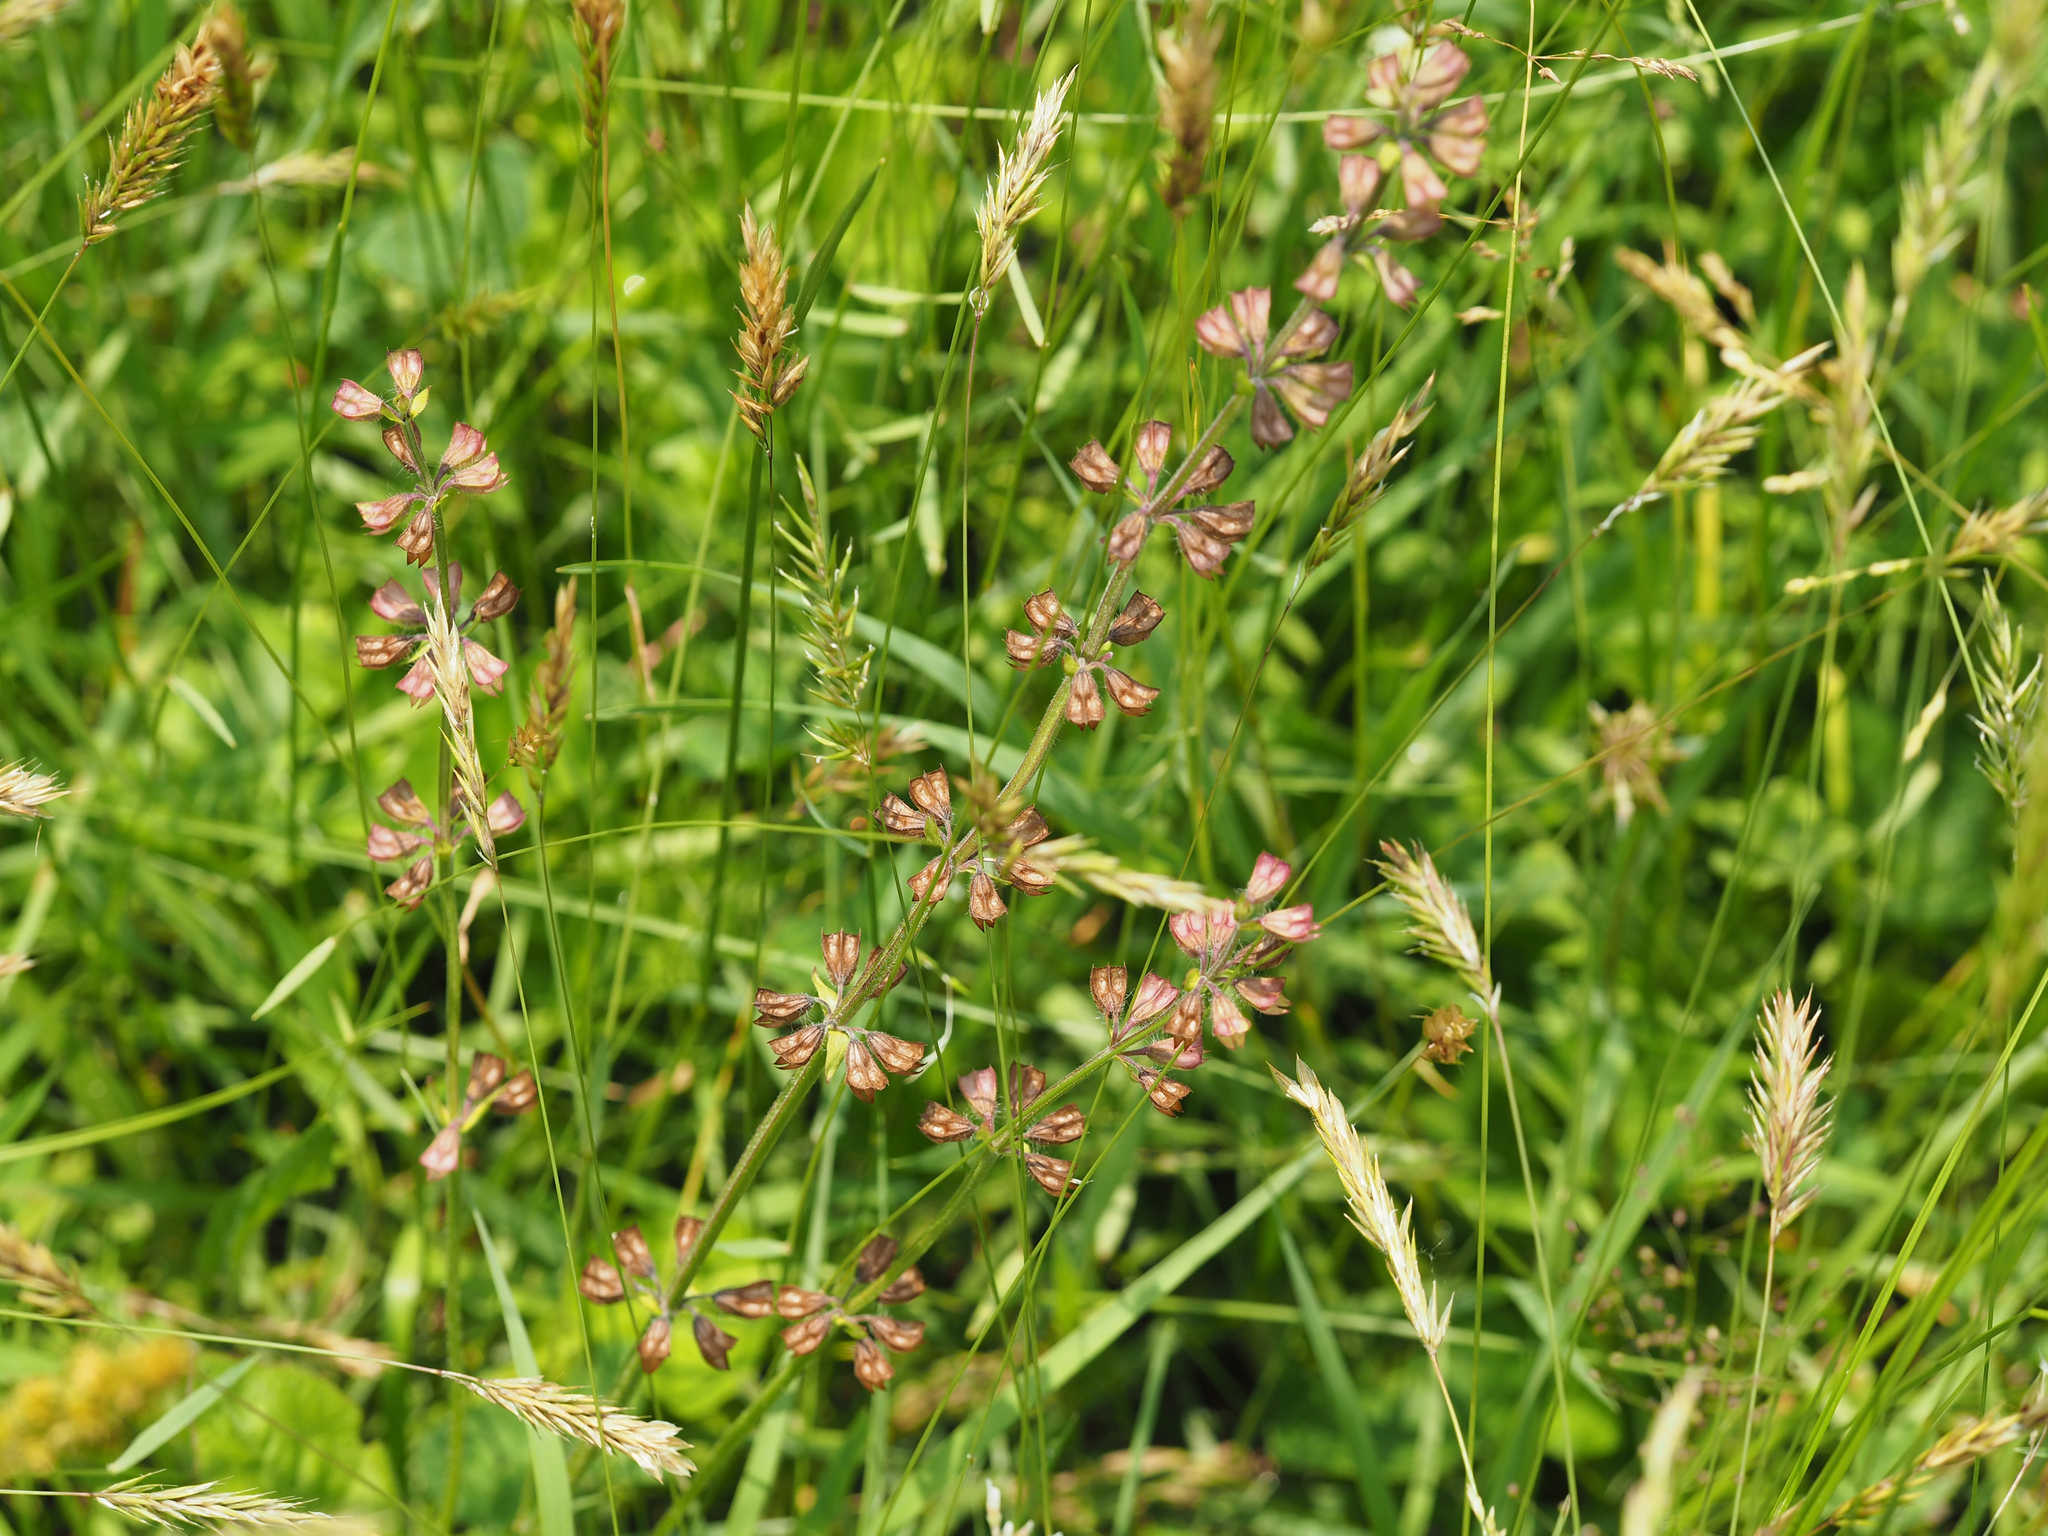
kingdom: Plantae
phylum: Tracheophyta
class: Magnoliopsida
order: Lamiales
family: Lamiaceae
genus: Salvia
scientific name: Salvia lyrata
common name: Cancerweed
